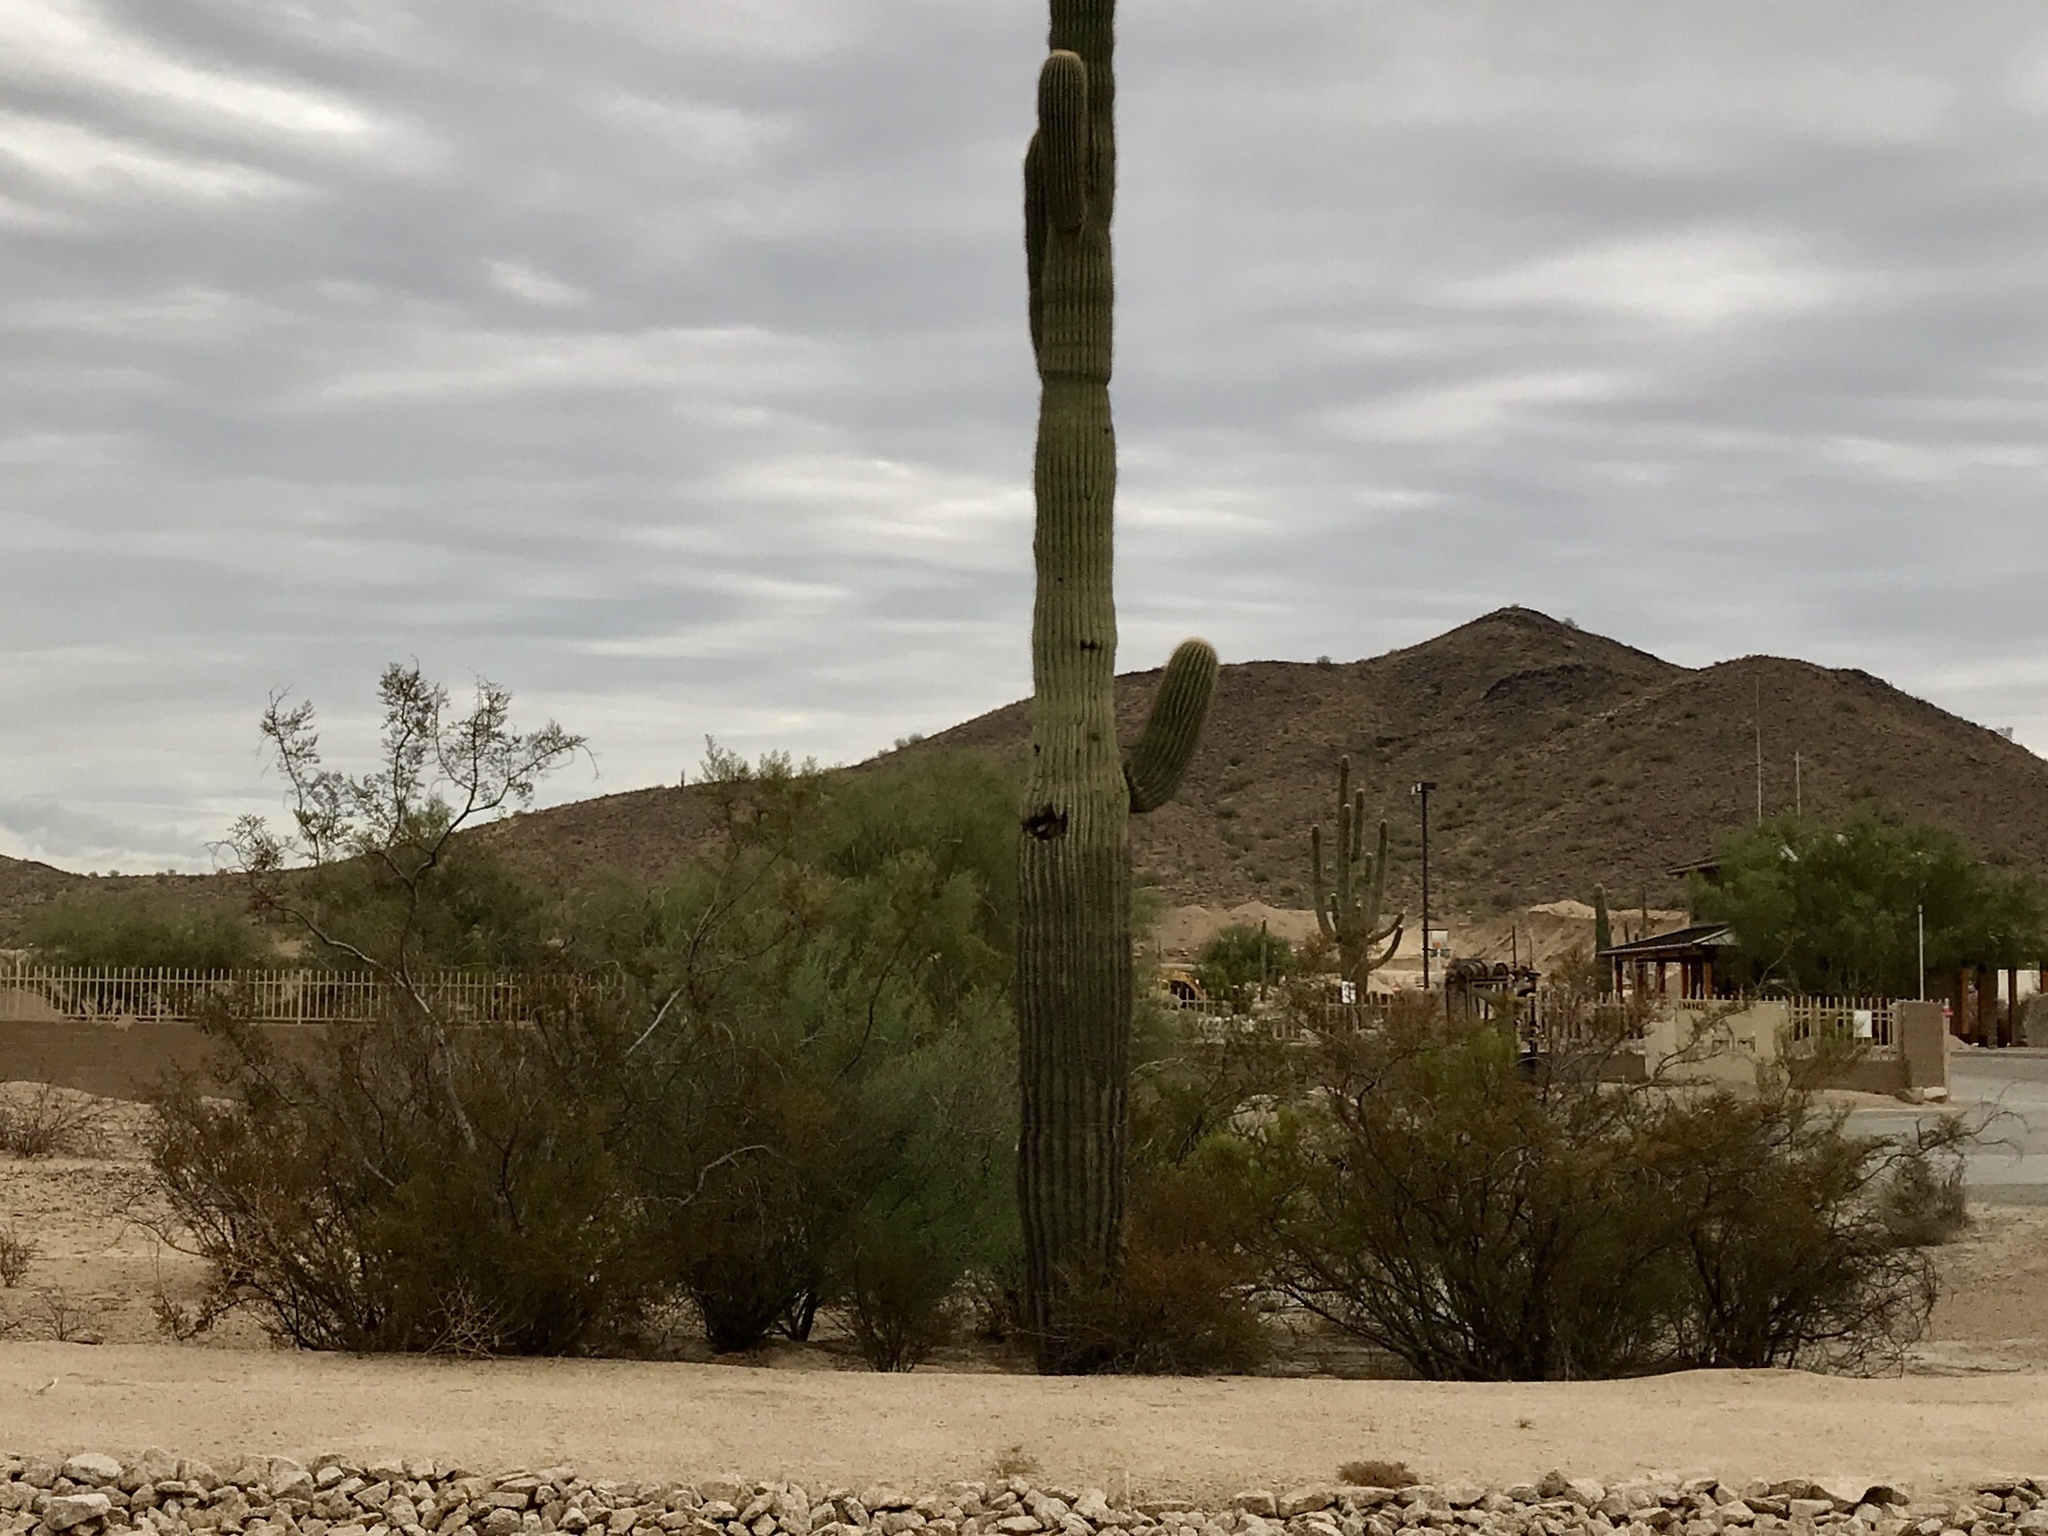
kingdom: Plantae
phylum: Tracheophyta
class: Magnoliopsida
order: Zygophyllales
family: Zygophyllaceae
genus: Larrea
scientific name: Larrea tridentata
